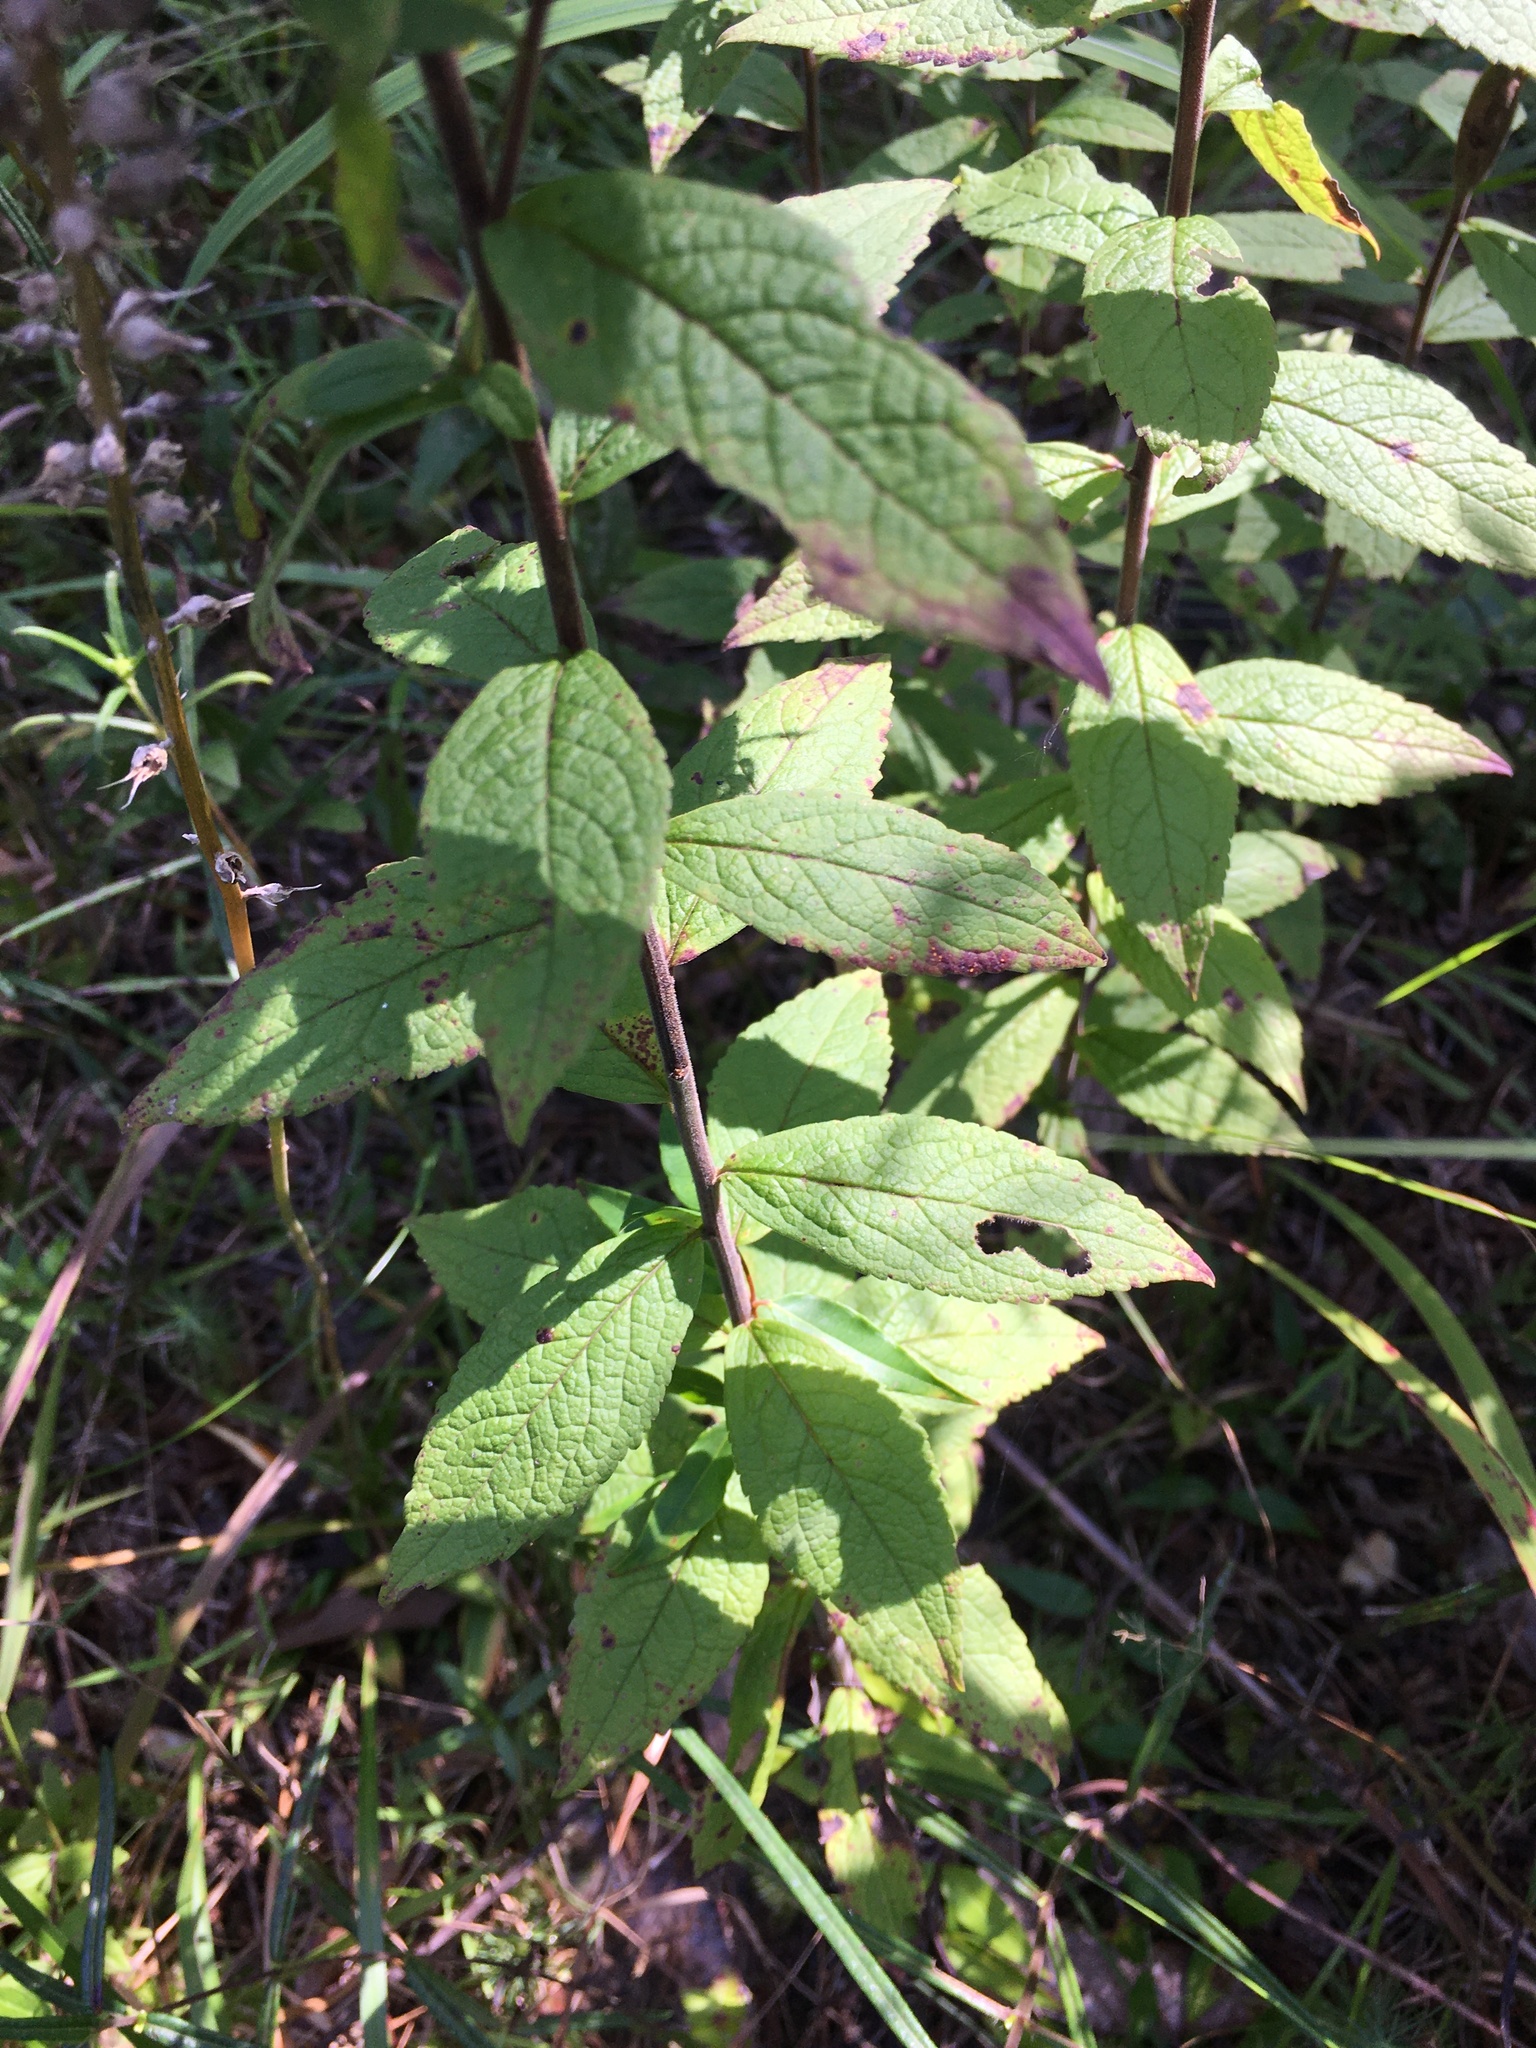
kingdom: Plantae
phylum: Tracheophyta
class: Magnoliopsida
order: Asterales
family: Asteraceae
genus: Solidago
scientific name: Solidago rugosa
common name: Rough-stemmed goldenrod
